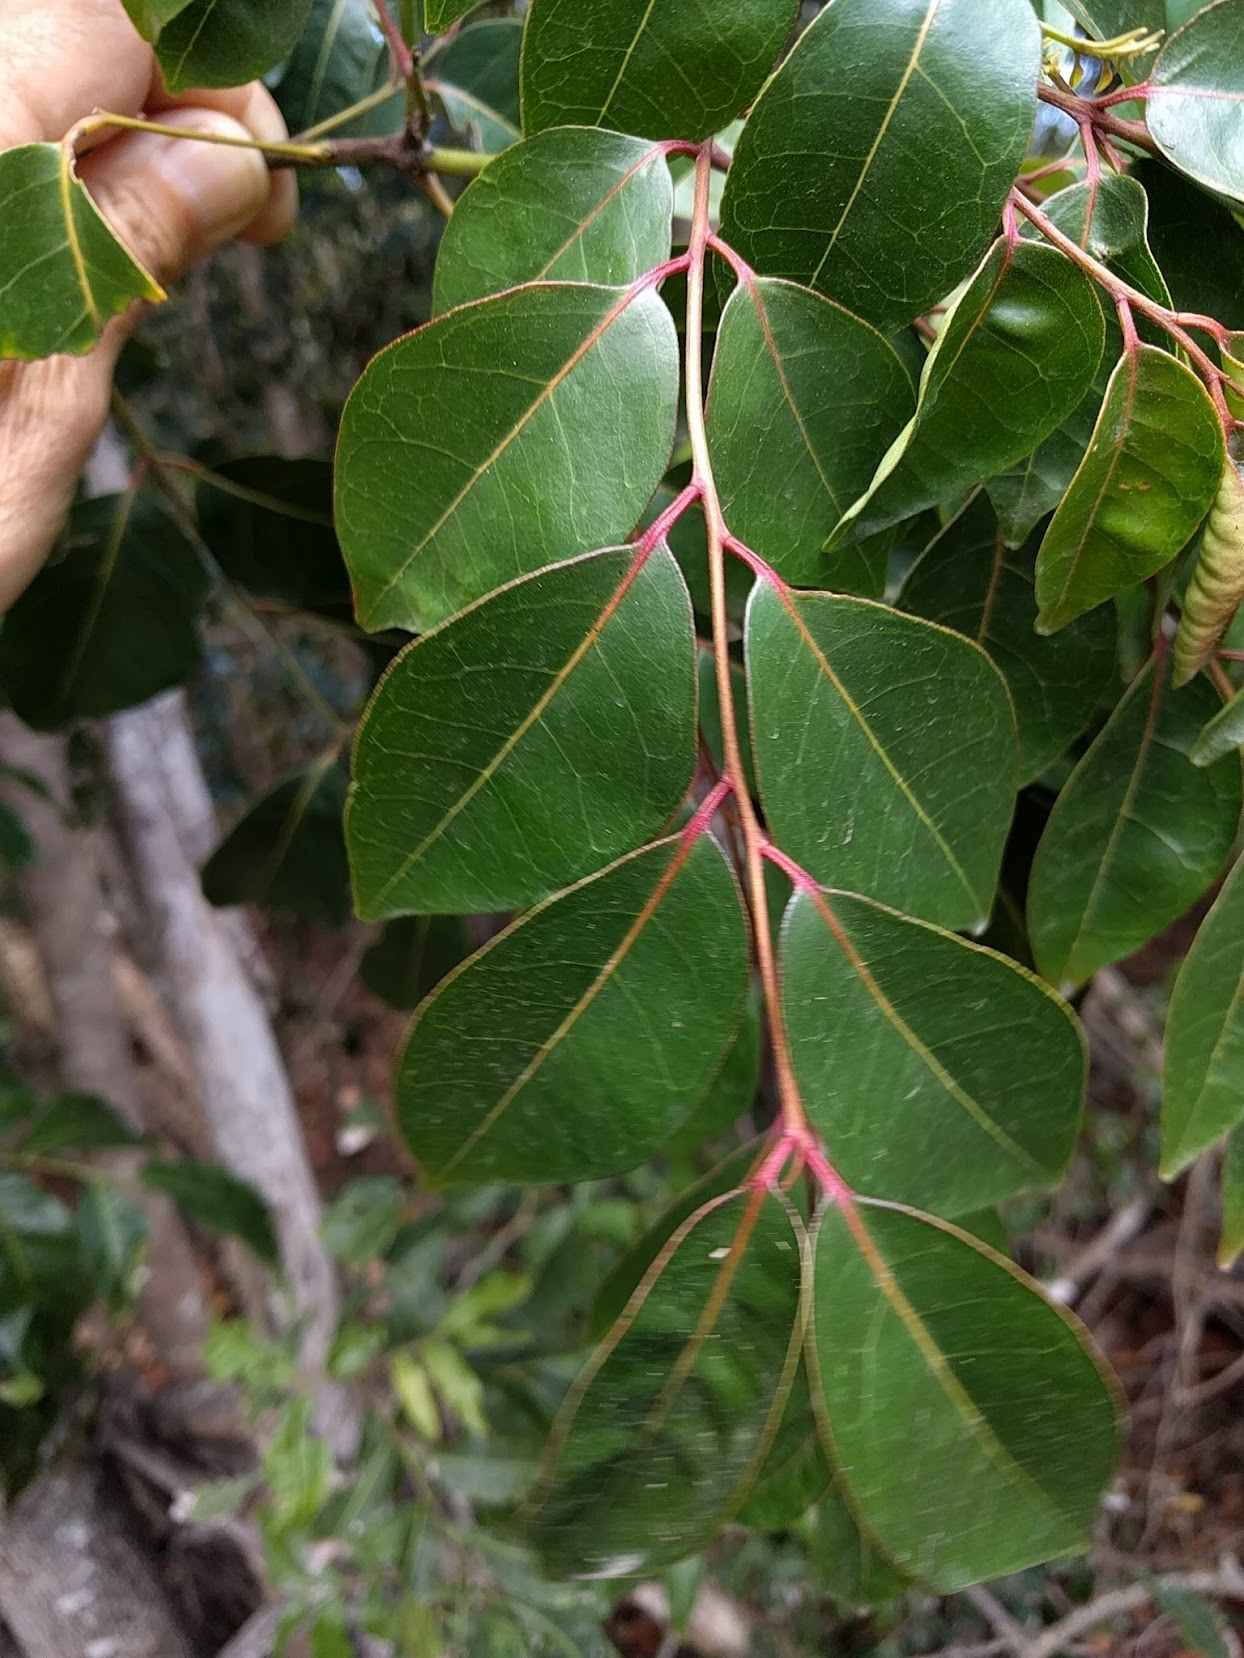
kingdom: Plantae
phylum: Tracheophyta
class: Magnoliopsida
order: Sapindales
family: Rutaceae
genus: Murraya
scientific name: Murraya crenulata
